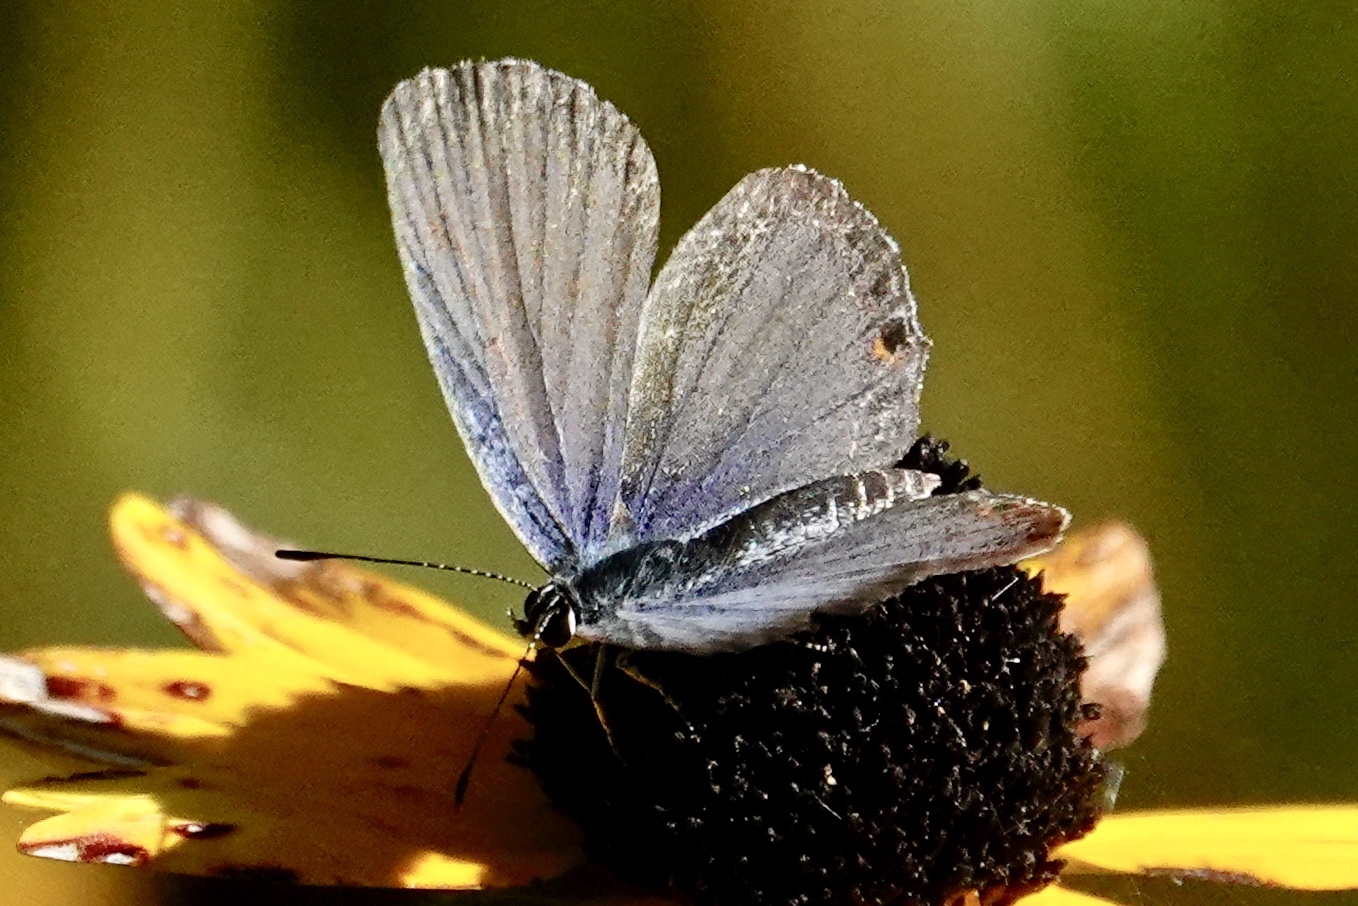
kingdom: Animalia
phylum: Arthropoda
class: Insecta
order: Lepidoptera
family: Lycaenidae
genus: Elkalyce
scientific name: Elkalyce comyntas
